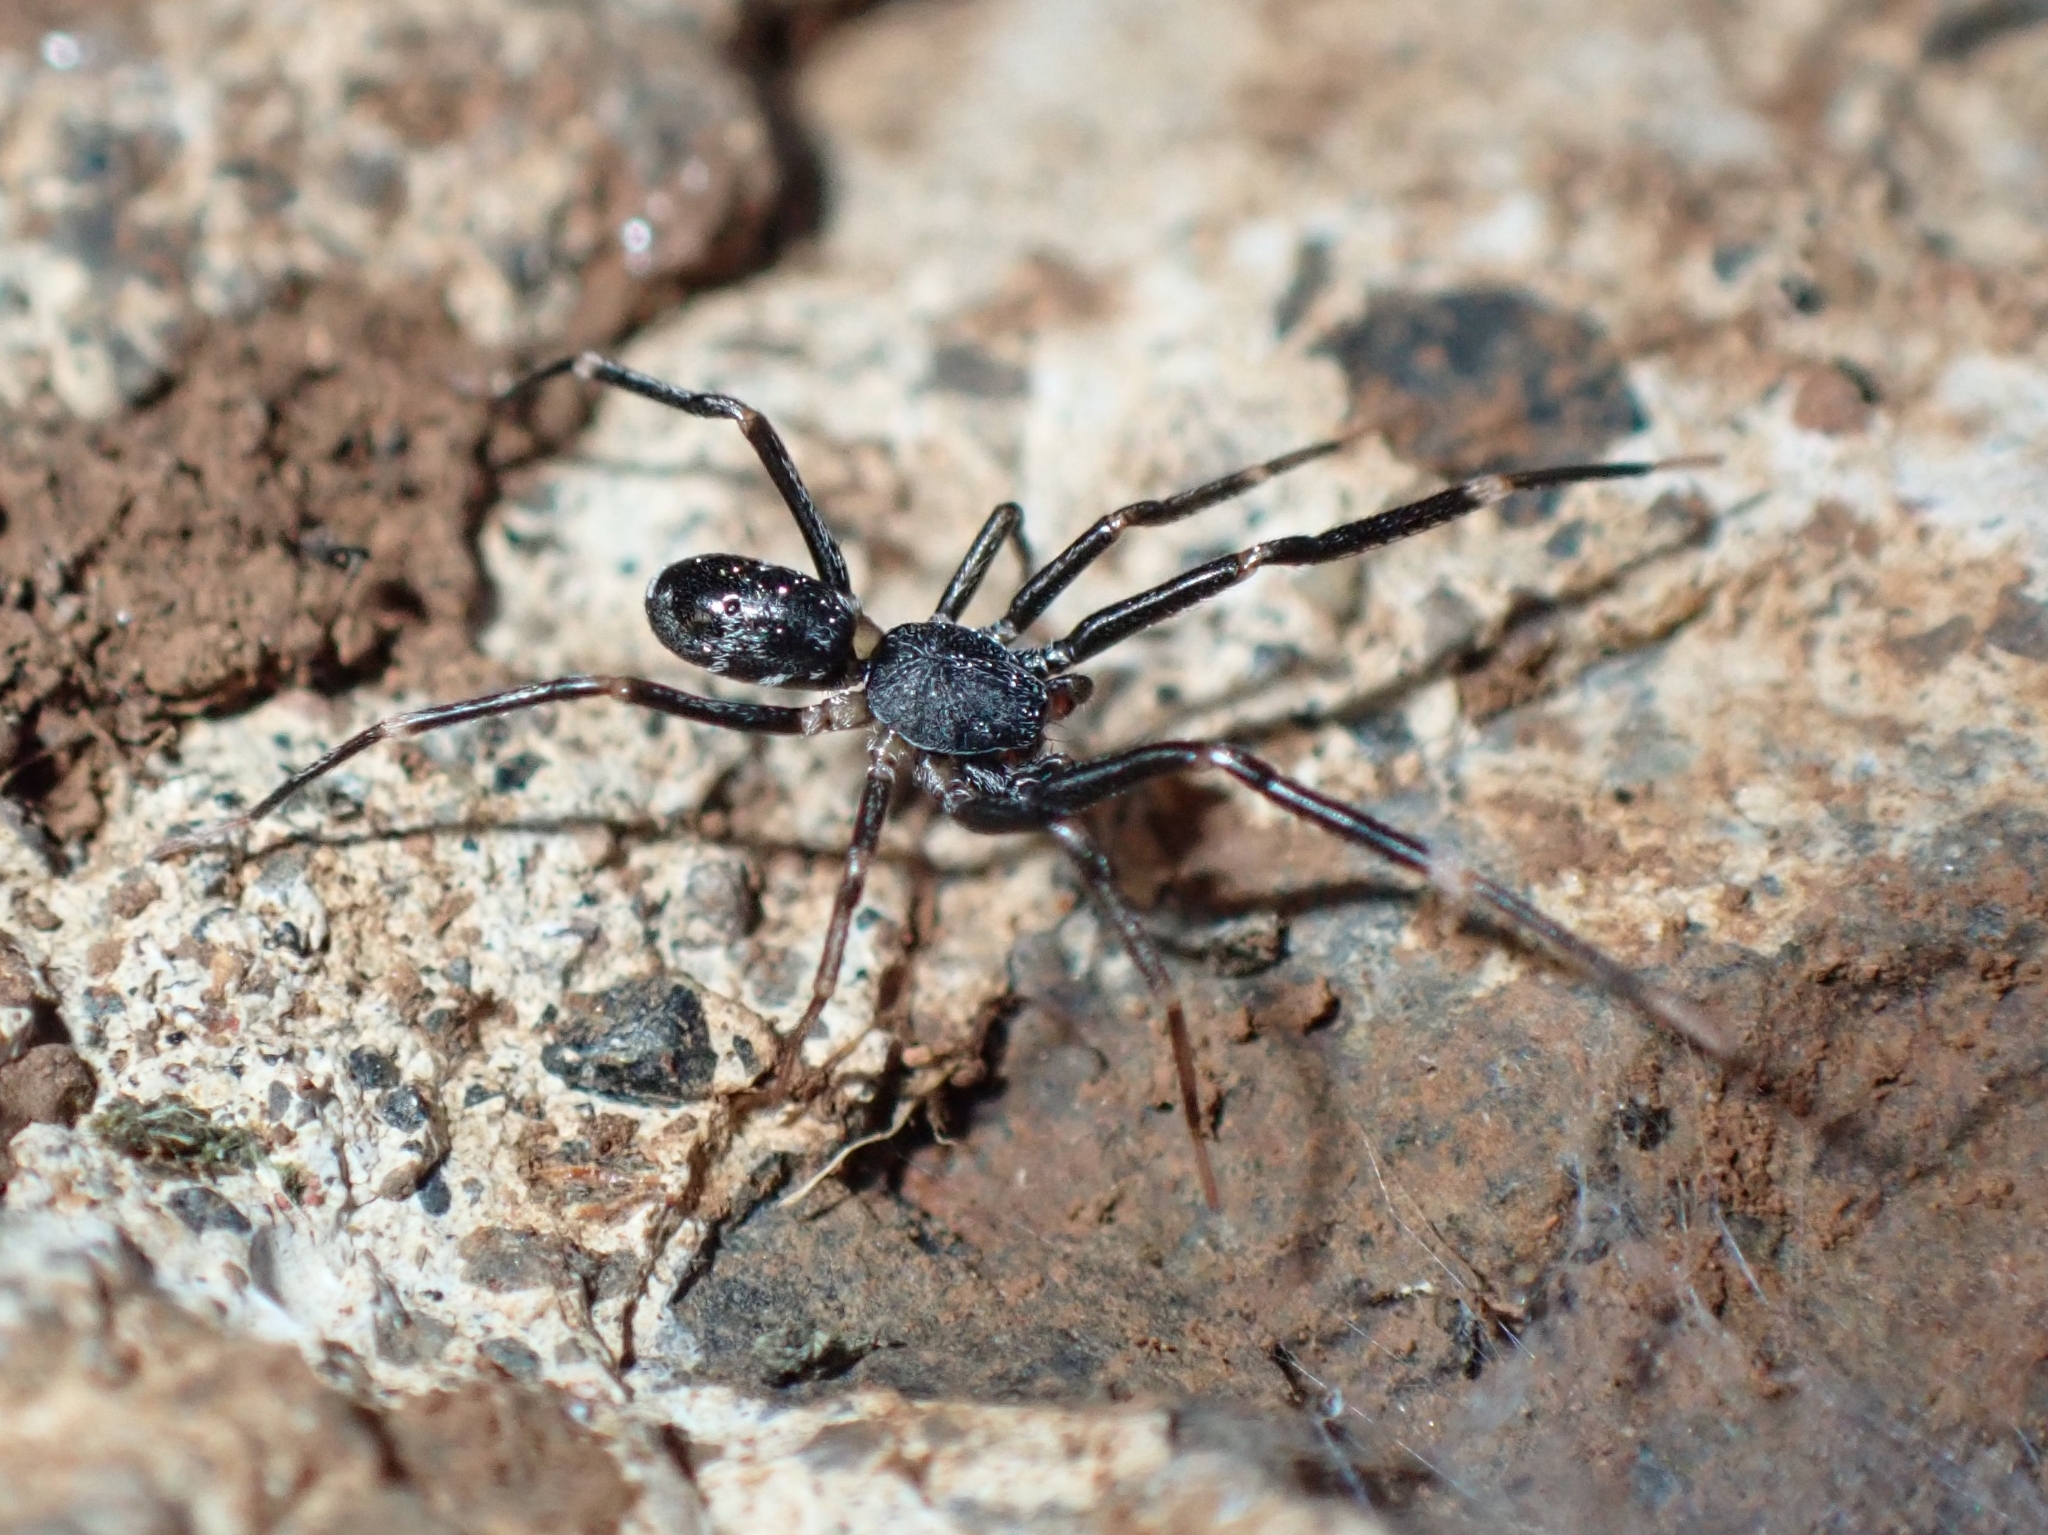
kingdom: Animalia
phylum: Arthropoda
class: Arachnida
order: Araneae
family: Phrurolithidae
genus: Liophrurillus
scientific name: Liophrurillus flavitarsis
